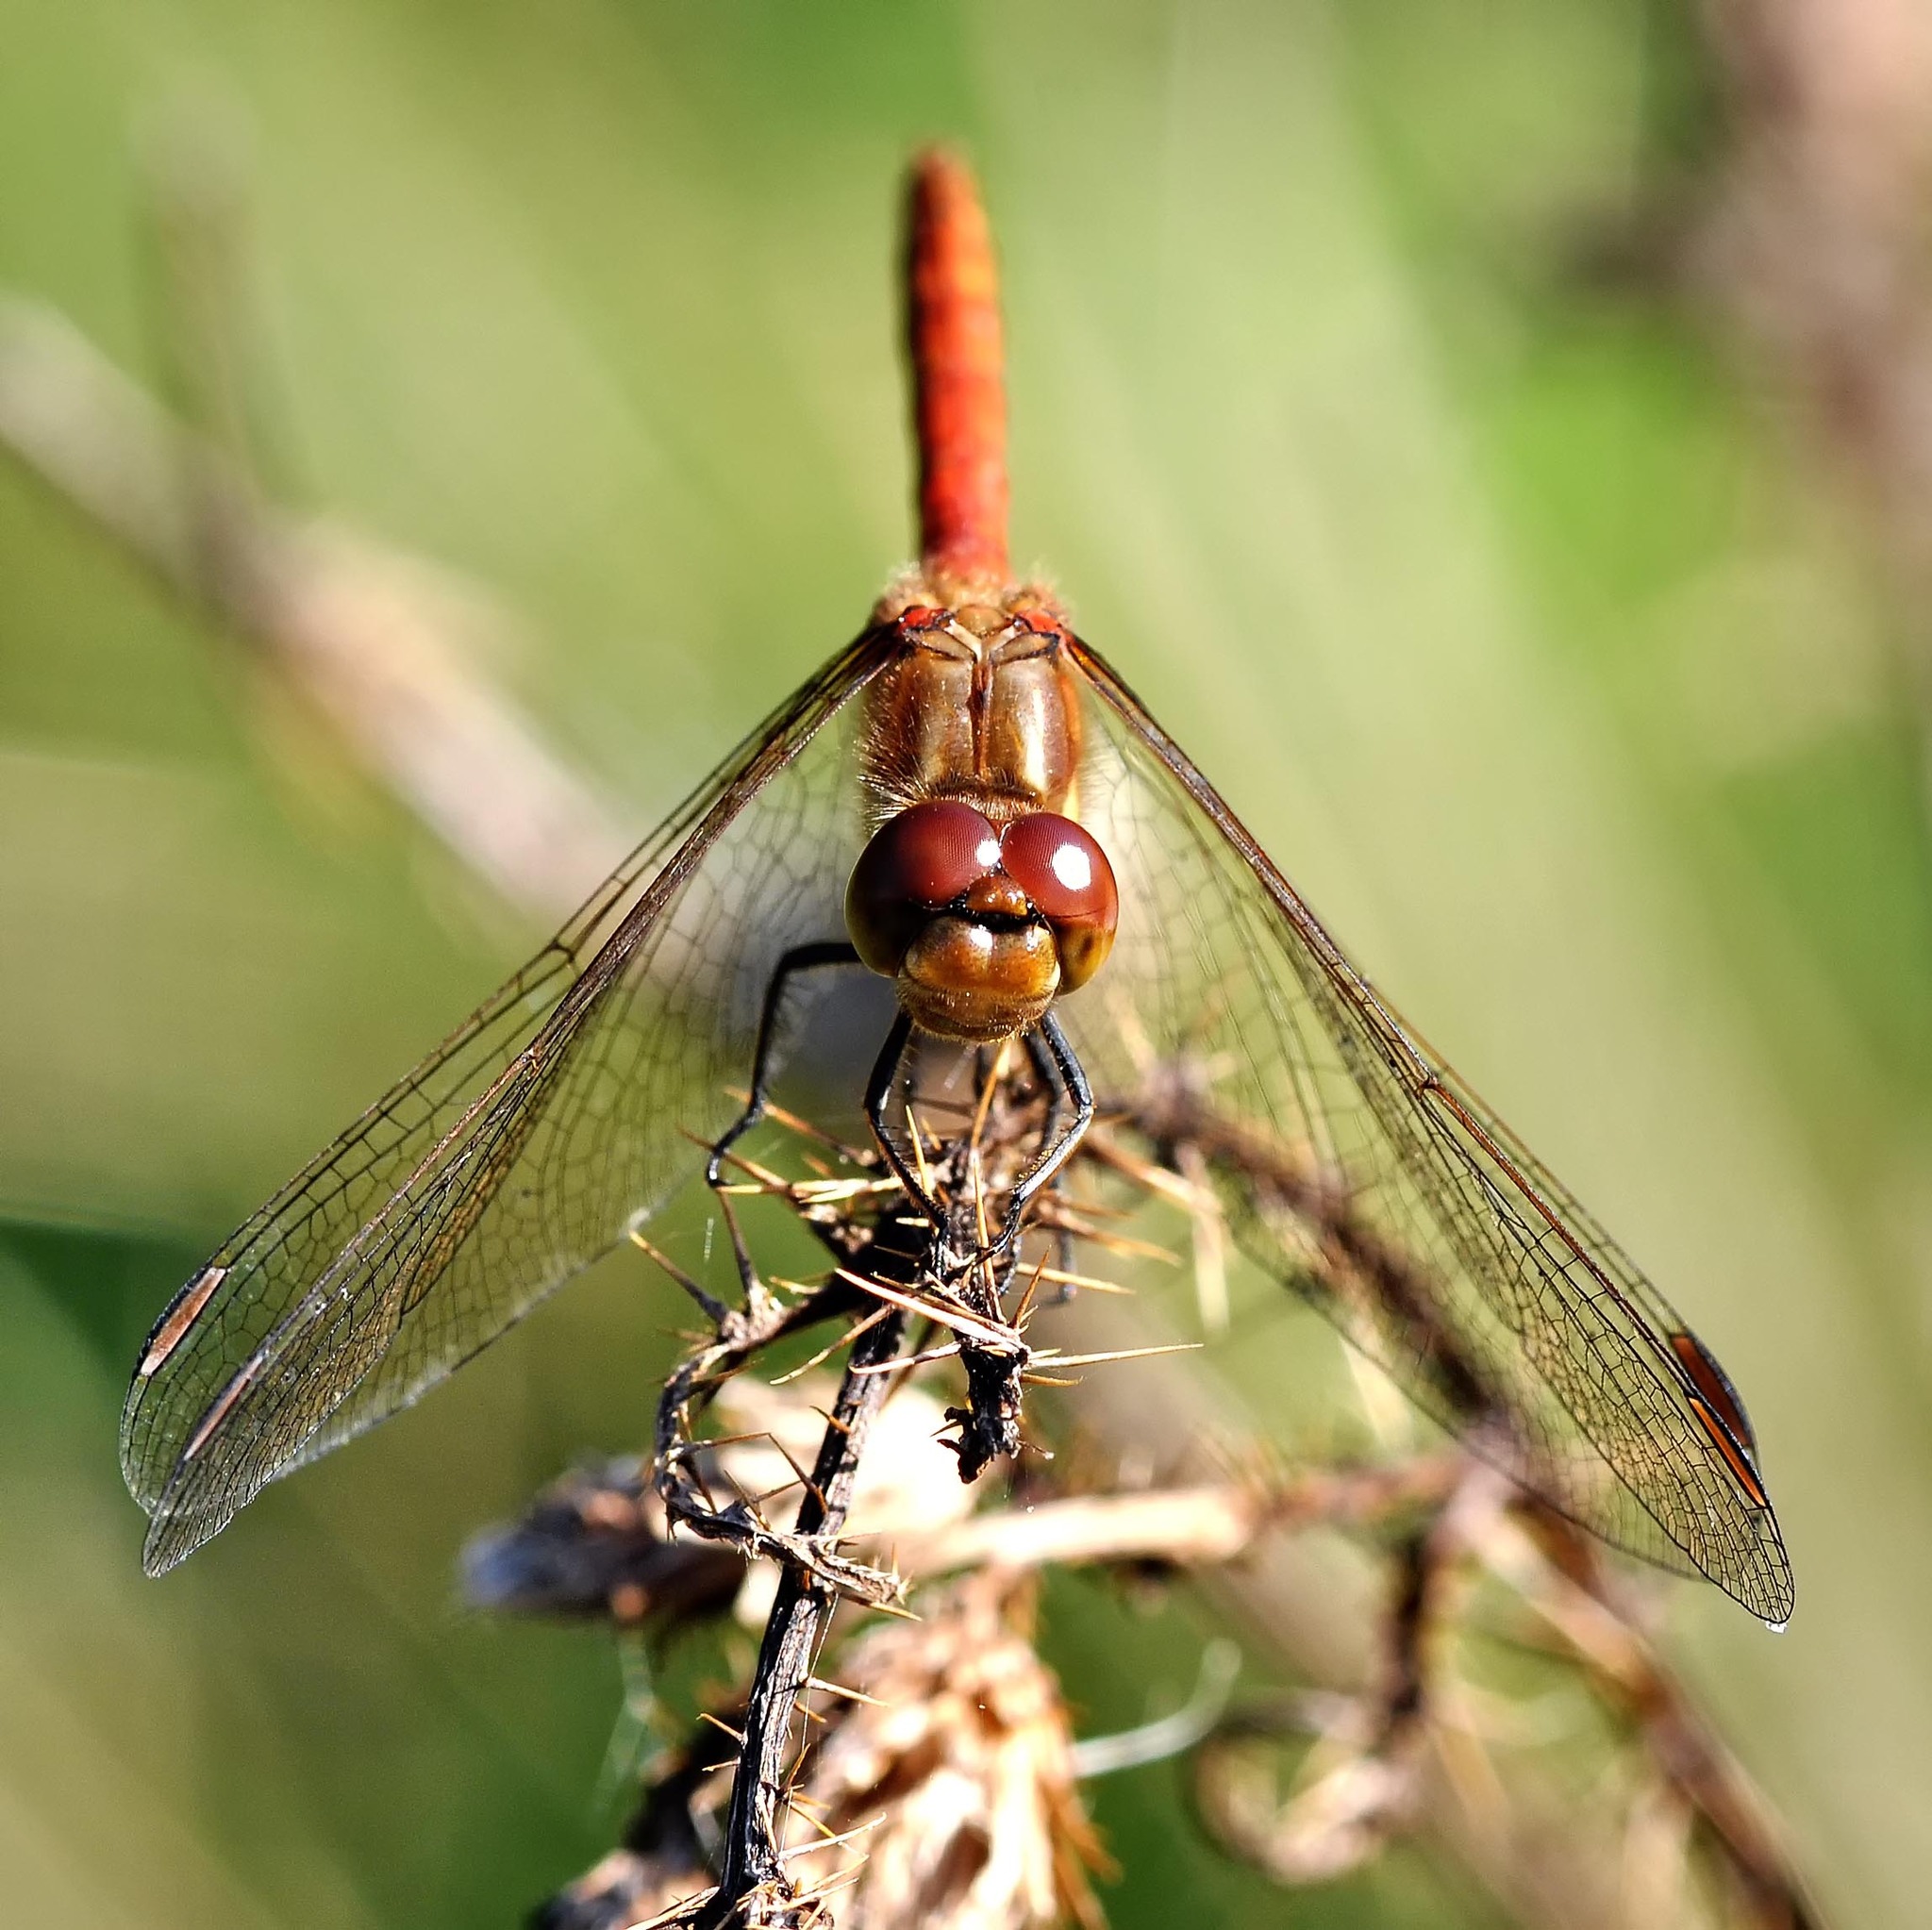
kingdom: Animalia
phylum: Arthropoda
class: Insecta
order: Odonata
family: Libellulidae
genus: Sympetrum
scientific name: Sympetrum striolatum
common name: Common darter
